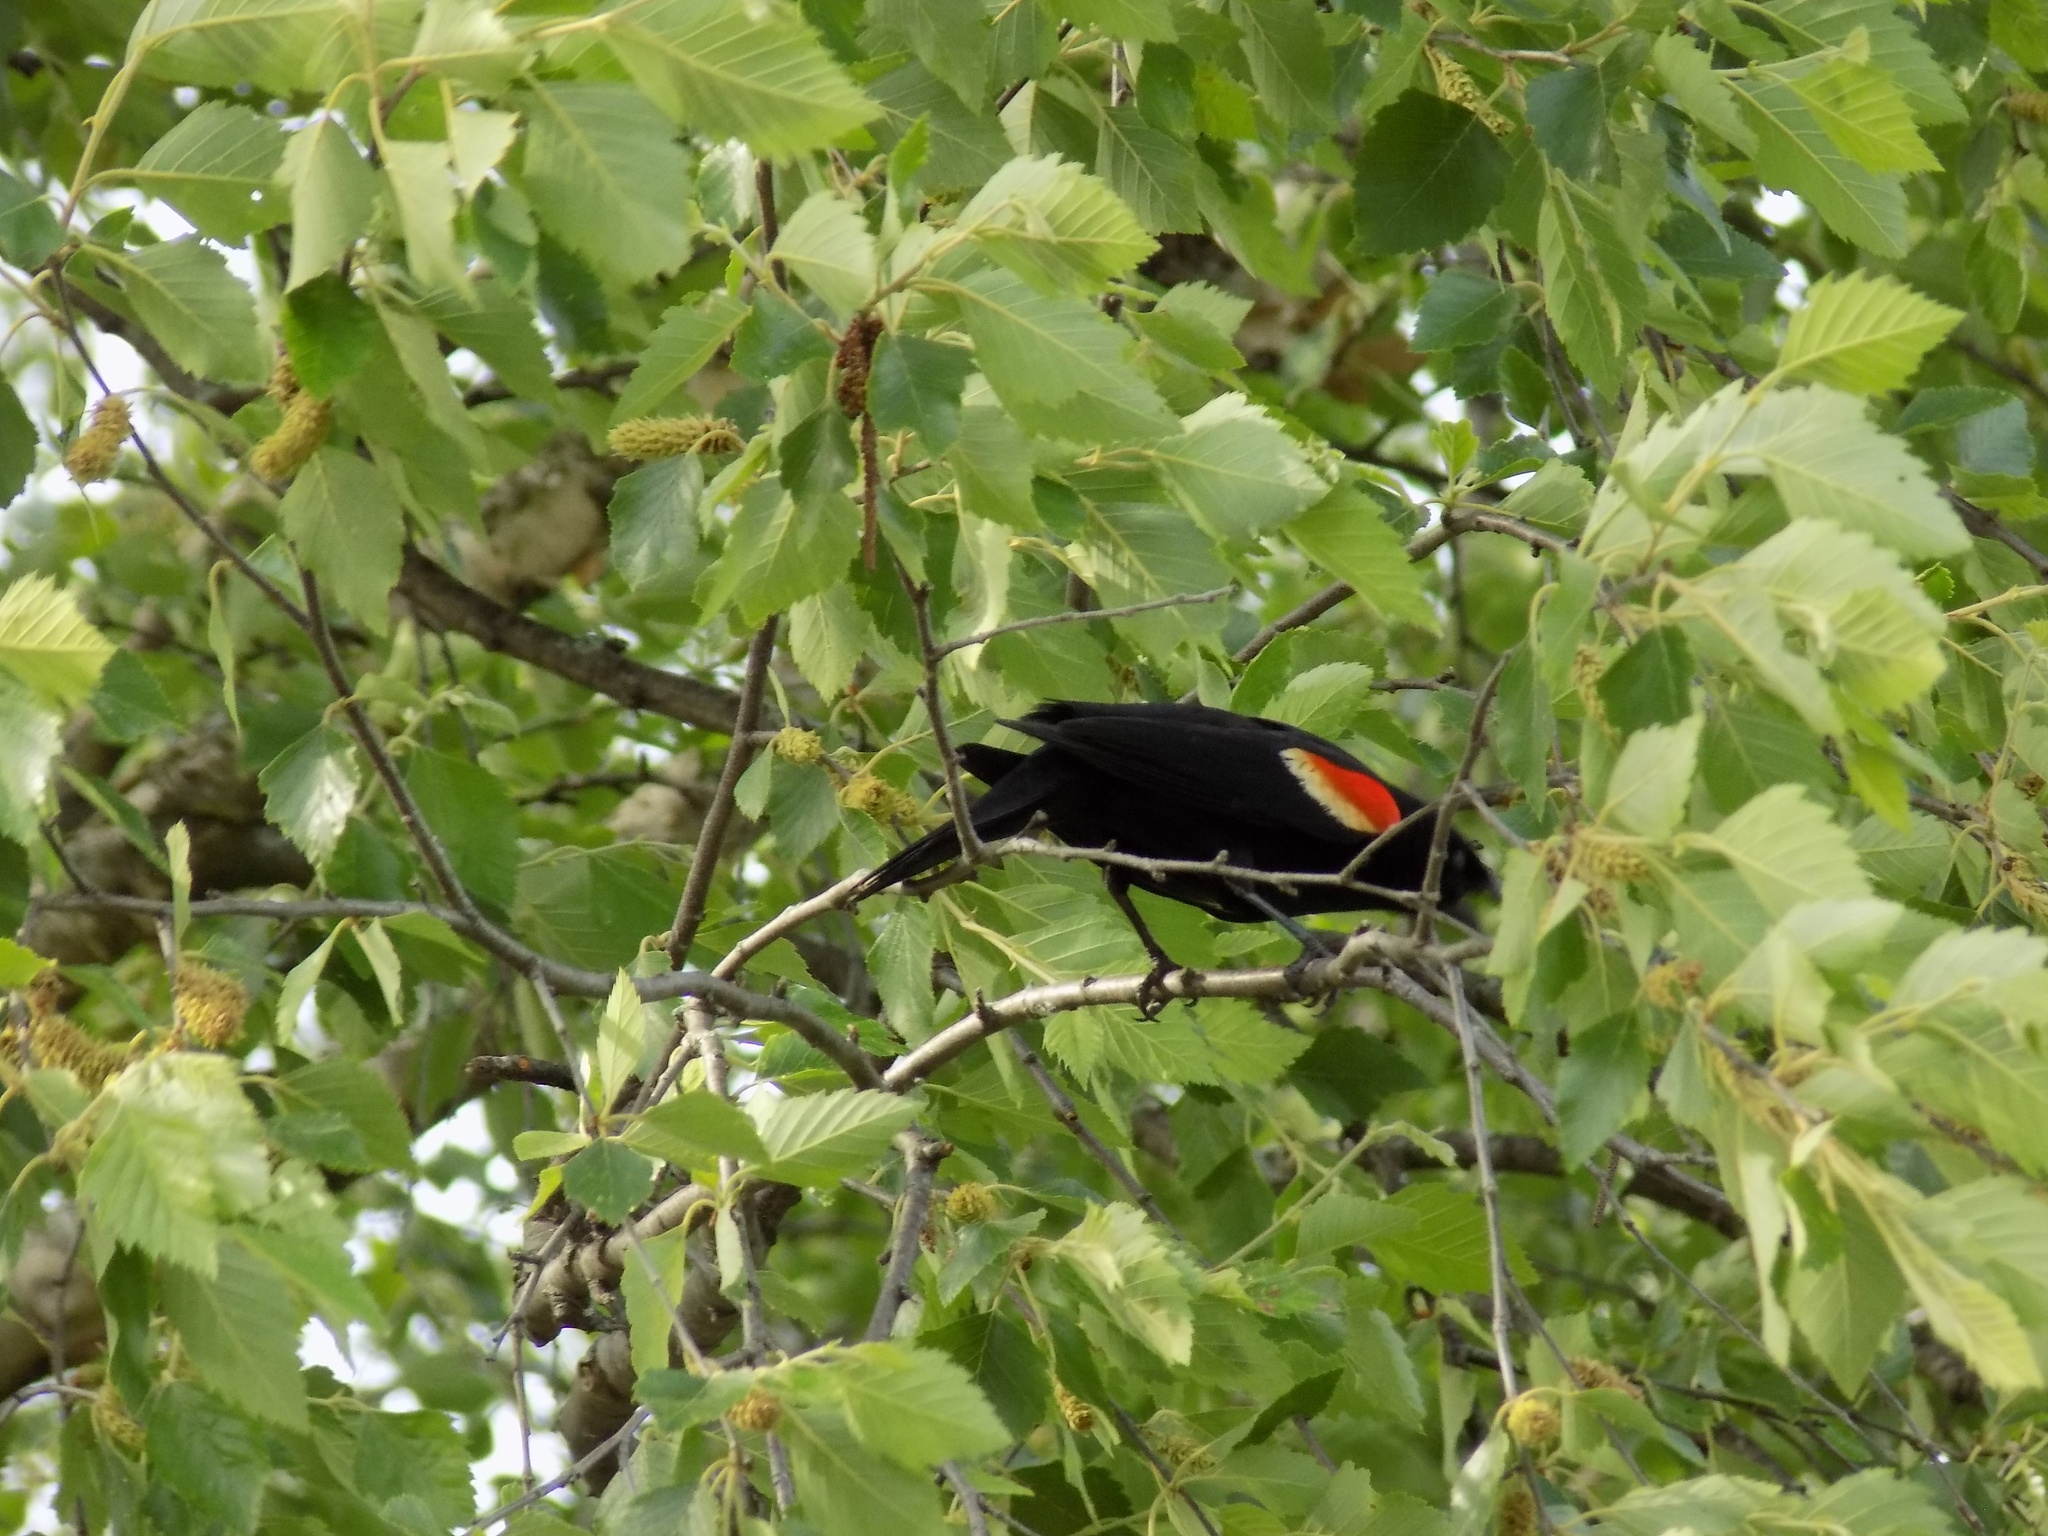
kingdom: Animalia
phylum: Chordata
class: Aves
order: Passeriformes
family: Icteridae
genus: Agelaius
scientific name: Agelaius phoeniceus
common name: Red-winged blackbird
